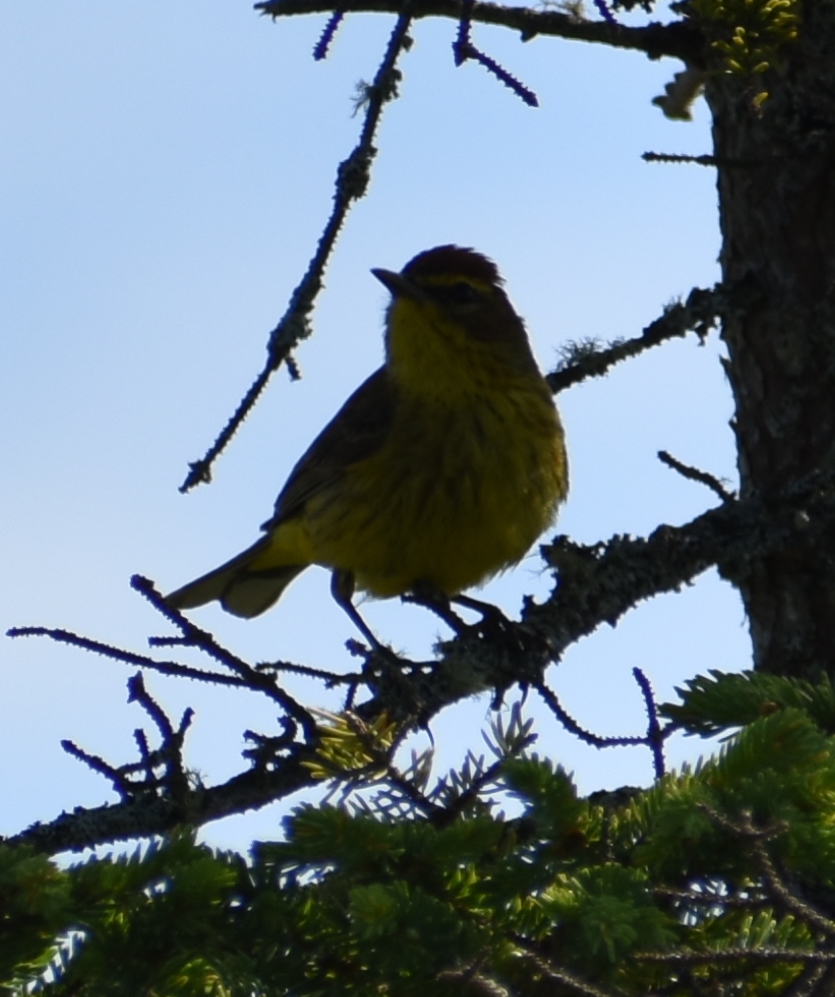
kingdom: Animalia
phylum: Chordata
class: Aves
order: Passeriformes
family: Parulidae
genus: Setophaga
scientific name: Setophaga palmarum
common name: Palm warbler
